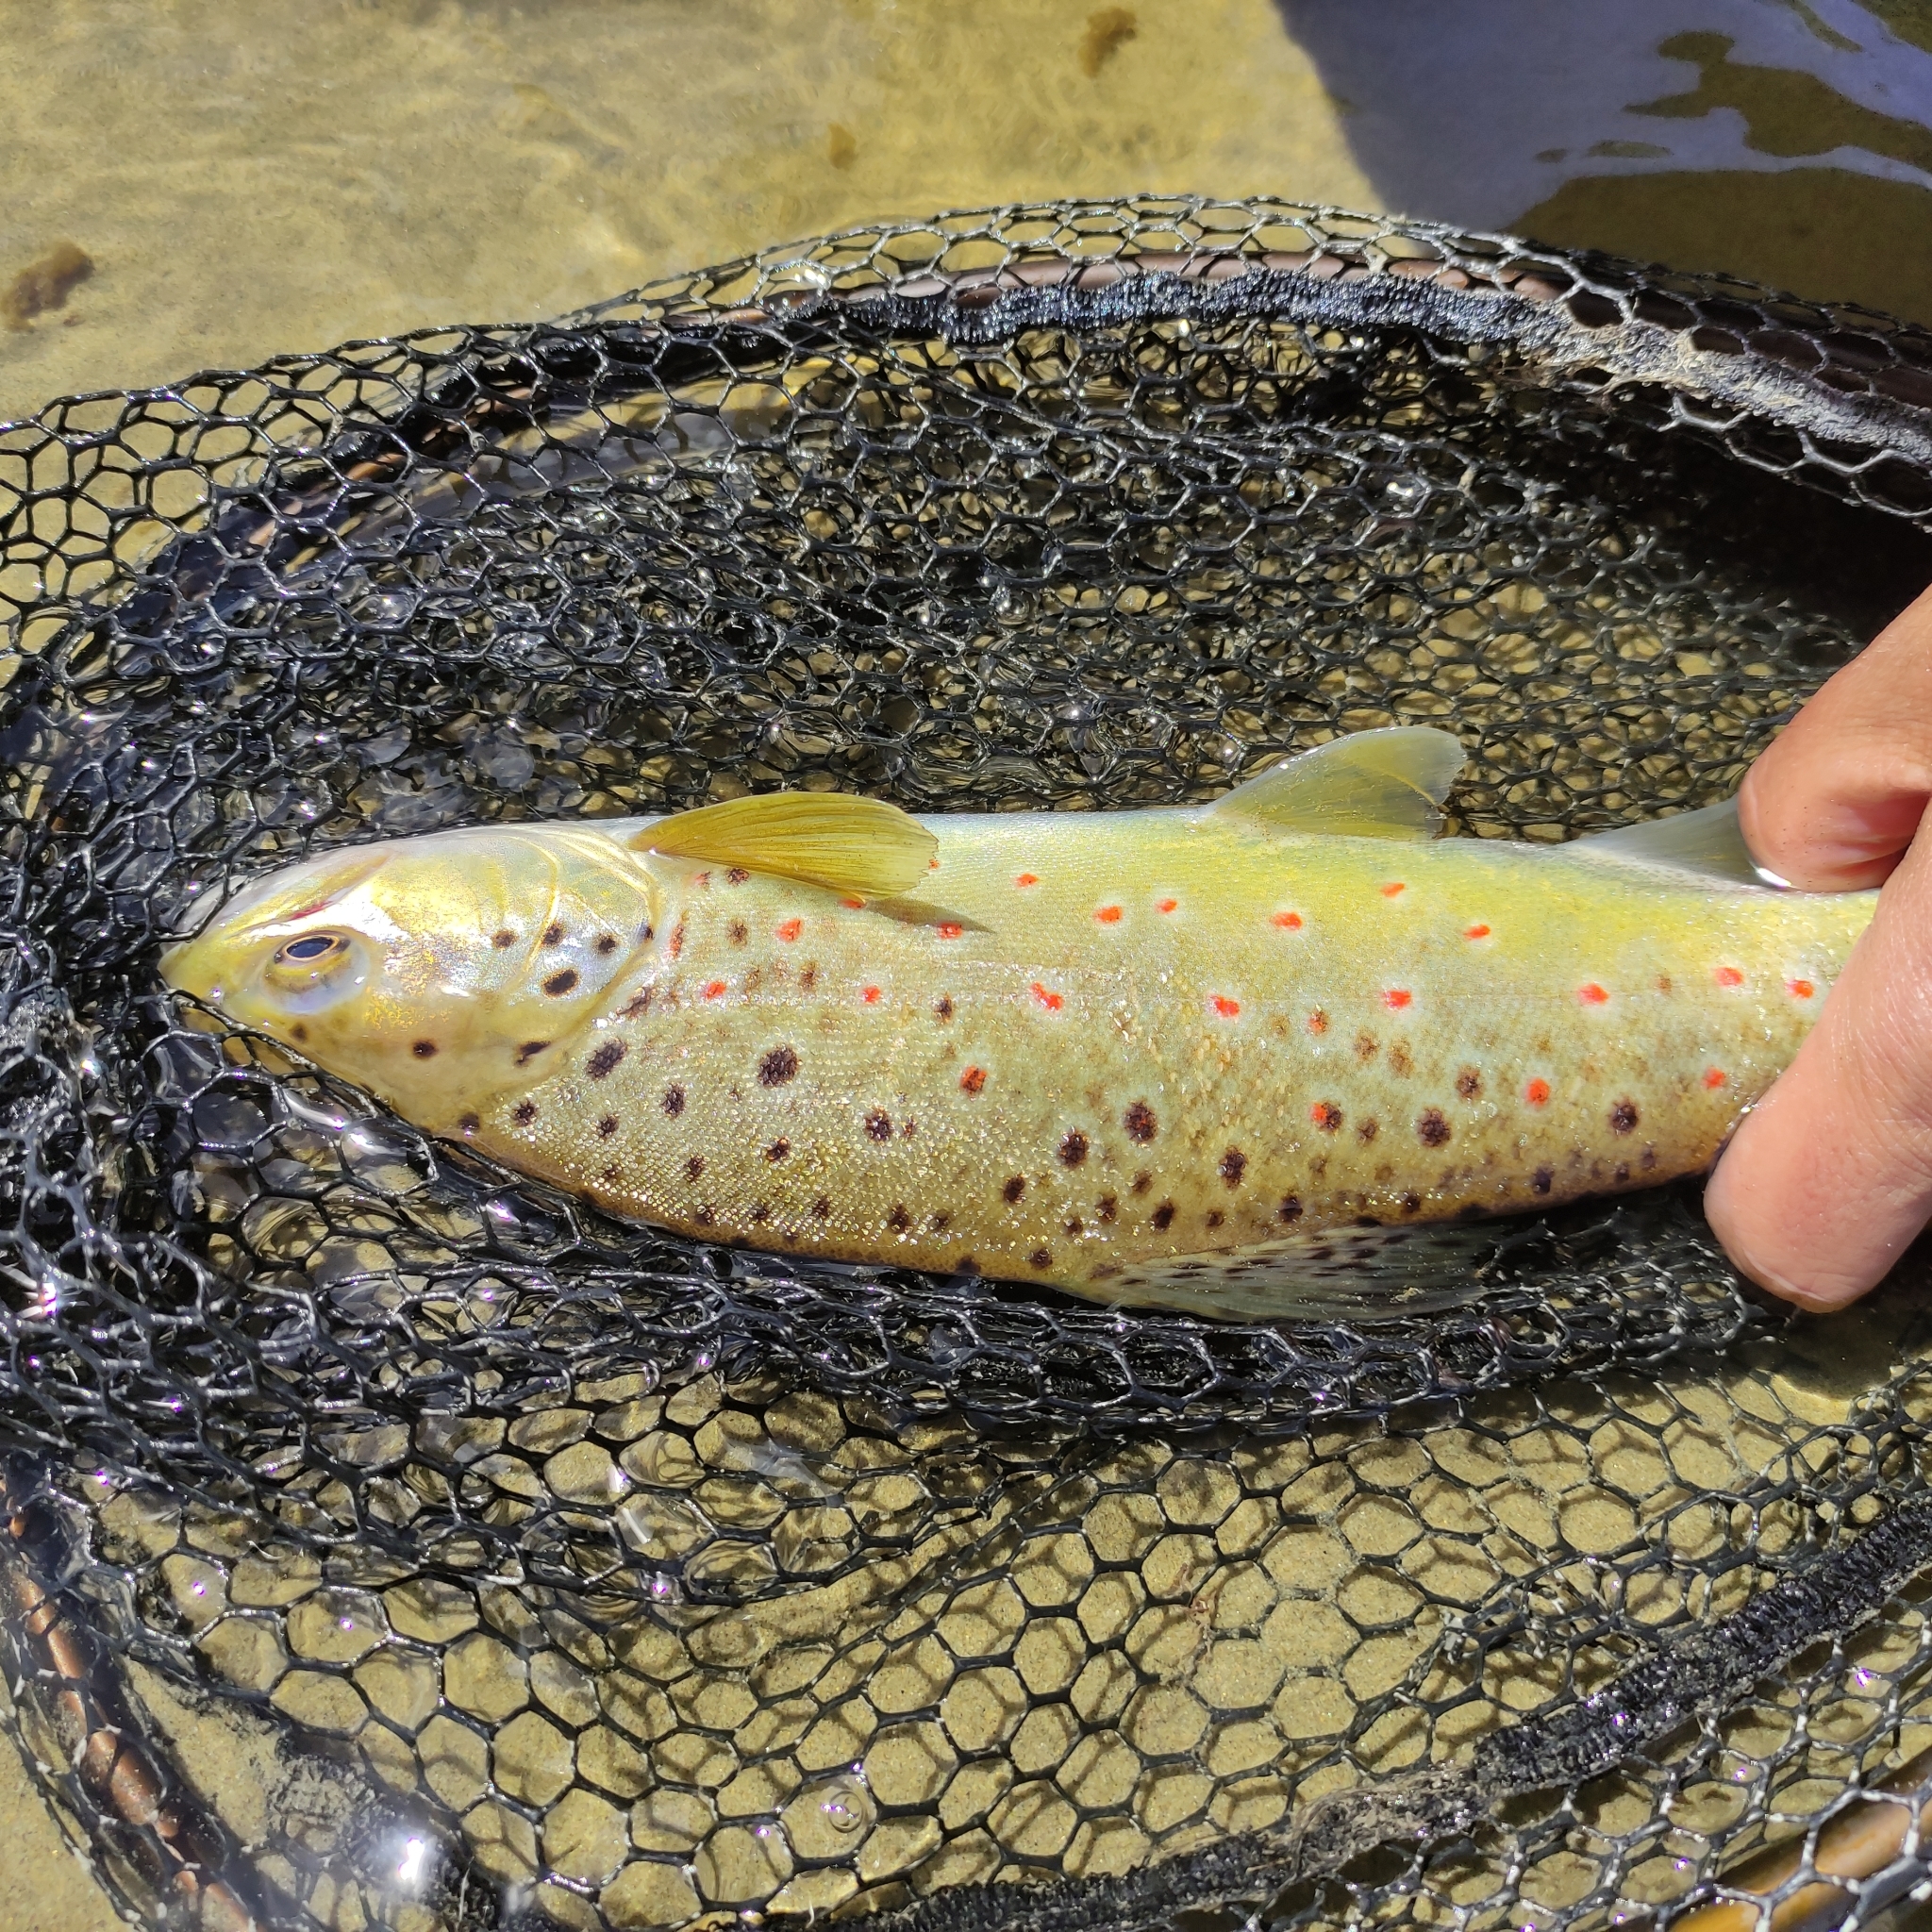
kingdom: Animalia
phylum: Chordata
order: Salmoniformes
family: Salmonidae
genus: Salmo
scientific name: Salmo trutta
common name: Brown trout
